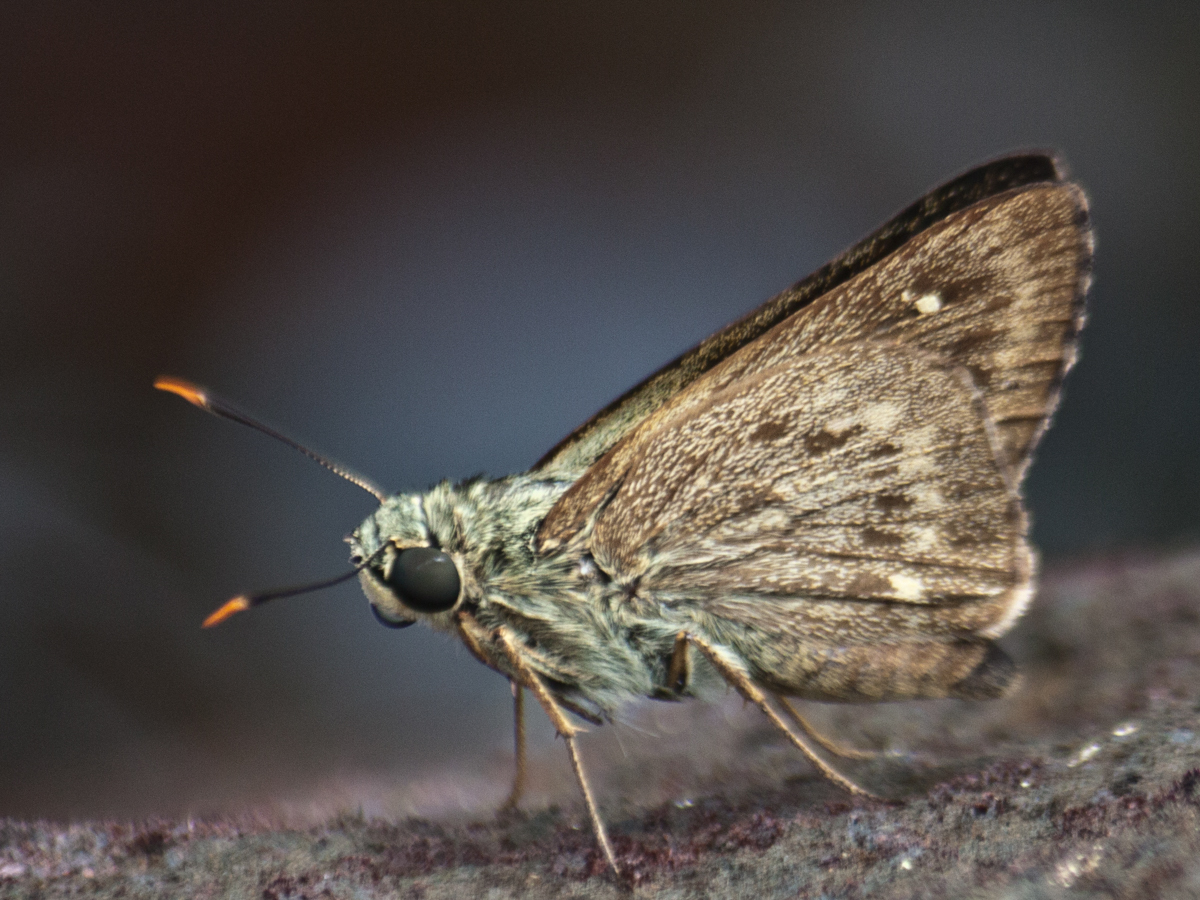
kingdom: Animalia
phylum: Arthropoda
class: Insecta
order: Lepidoptera
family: Hesperiidae
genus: Pithauria
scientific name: Pithauria stramineipennis
